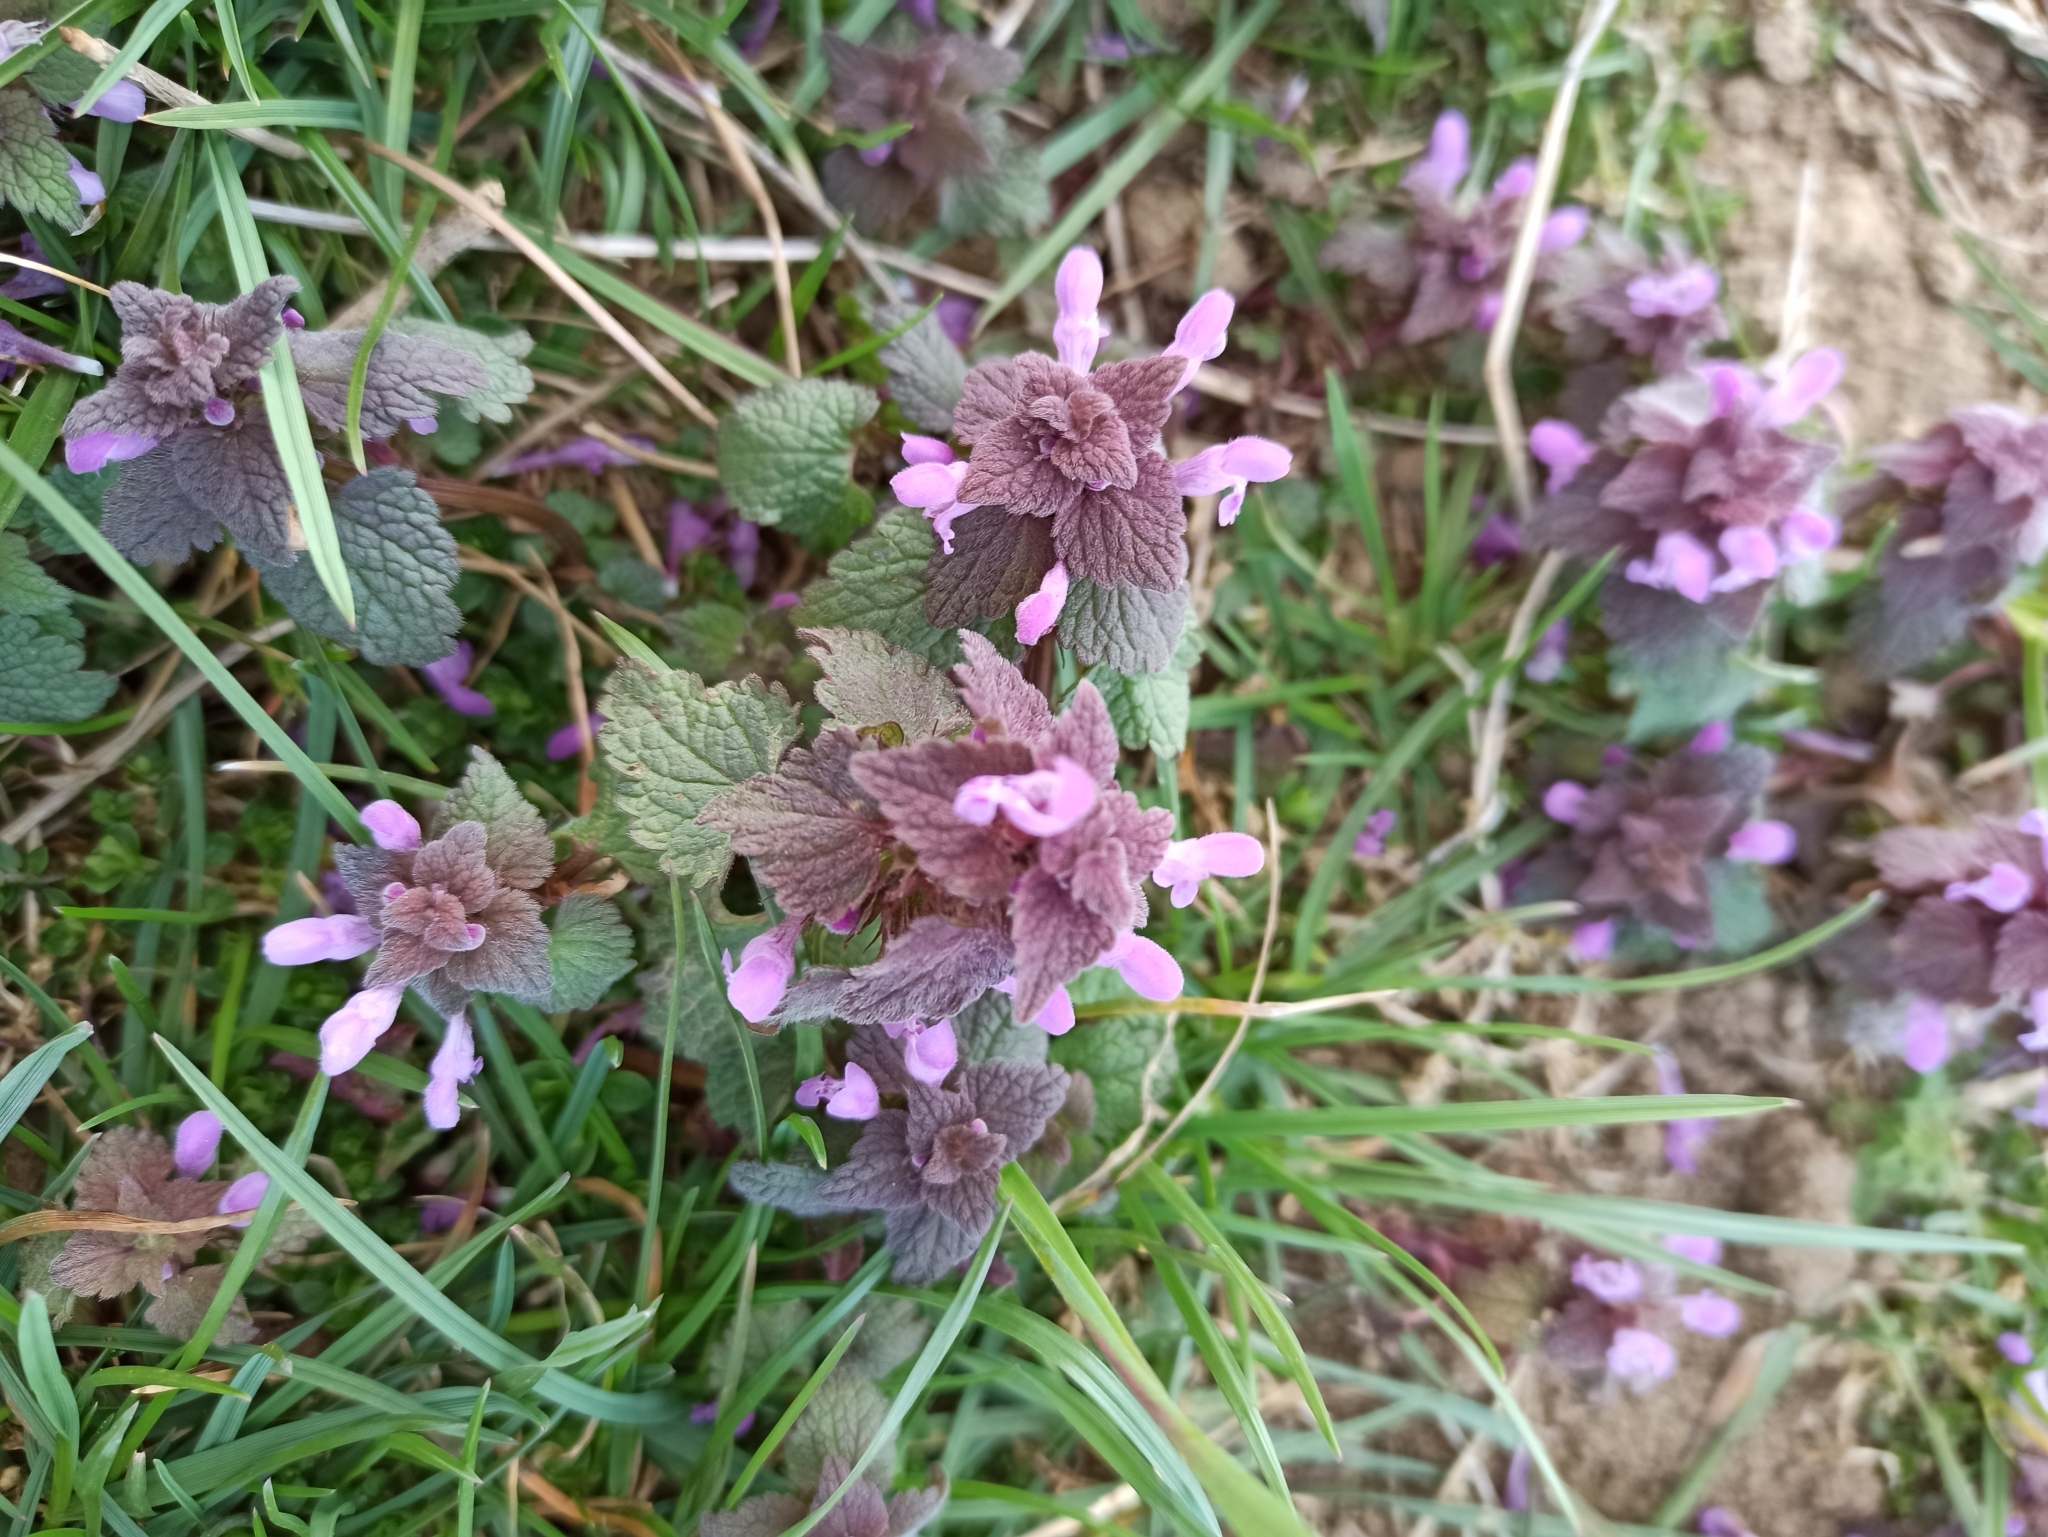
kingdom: Plantae
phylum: Tracheophyta
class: Magnoliopsida
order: Lamiales
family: Lamiaceae
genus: Lamium
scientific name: Lamium purpureum
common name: Red dead-nettle
